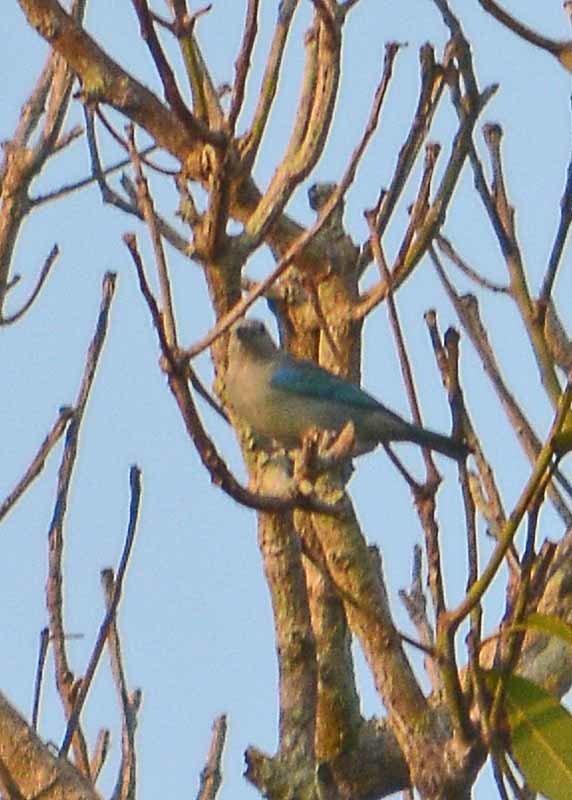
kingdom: Animalia
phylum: Chordata
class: Aves
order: Passeriformes
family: Thraupidae
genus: Thraupis
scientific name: Thraupis episcopus
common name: Blue-grey tanager
